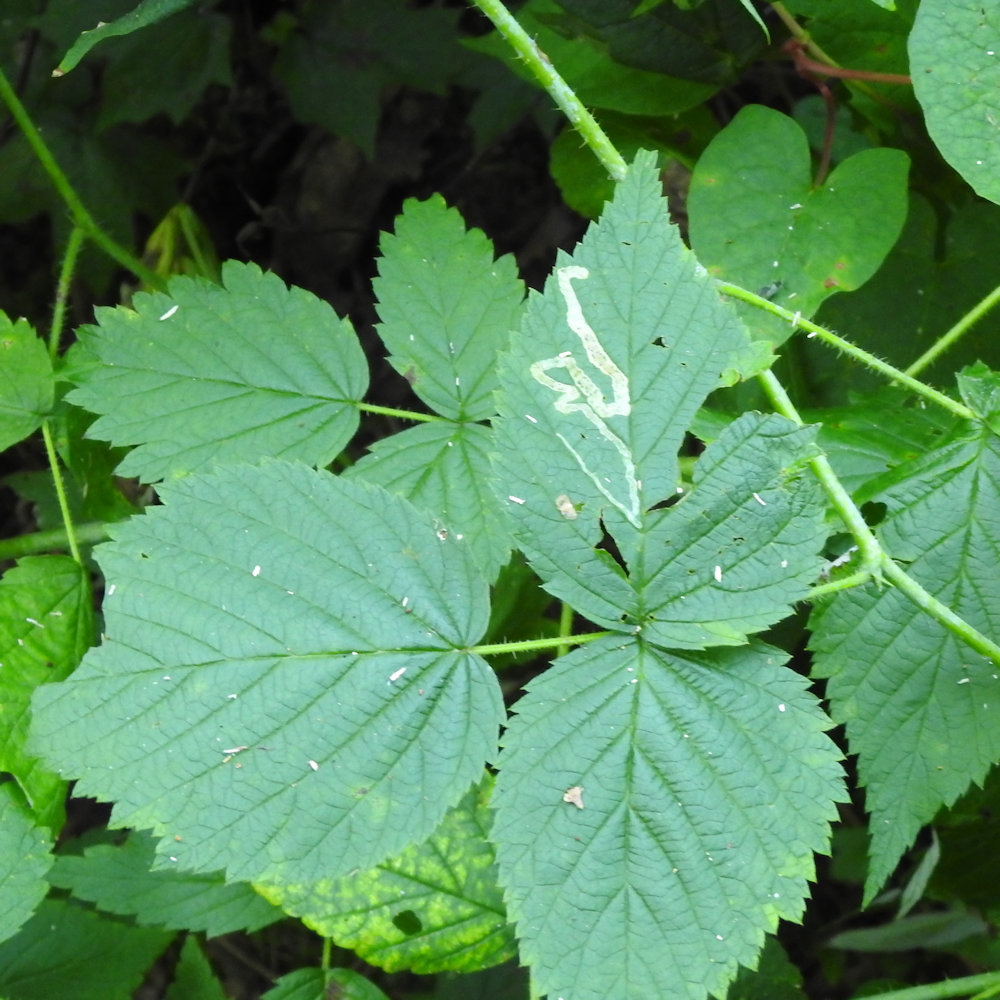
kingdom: Animalia
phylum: Arthropoda
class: Insecta
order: Diptera
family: Agromyzidae
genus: Agromyza
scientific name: Agromyza vockerothi
